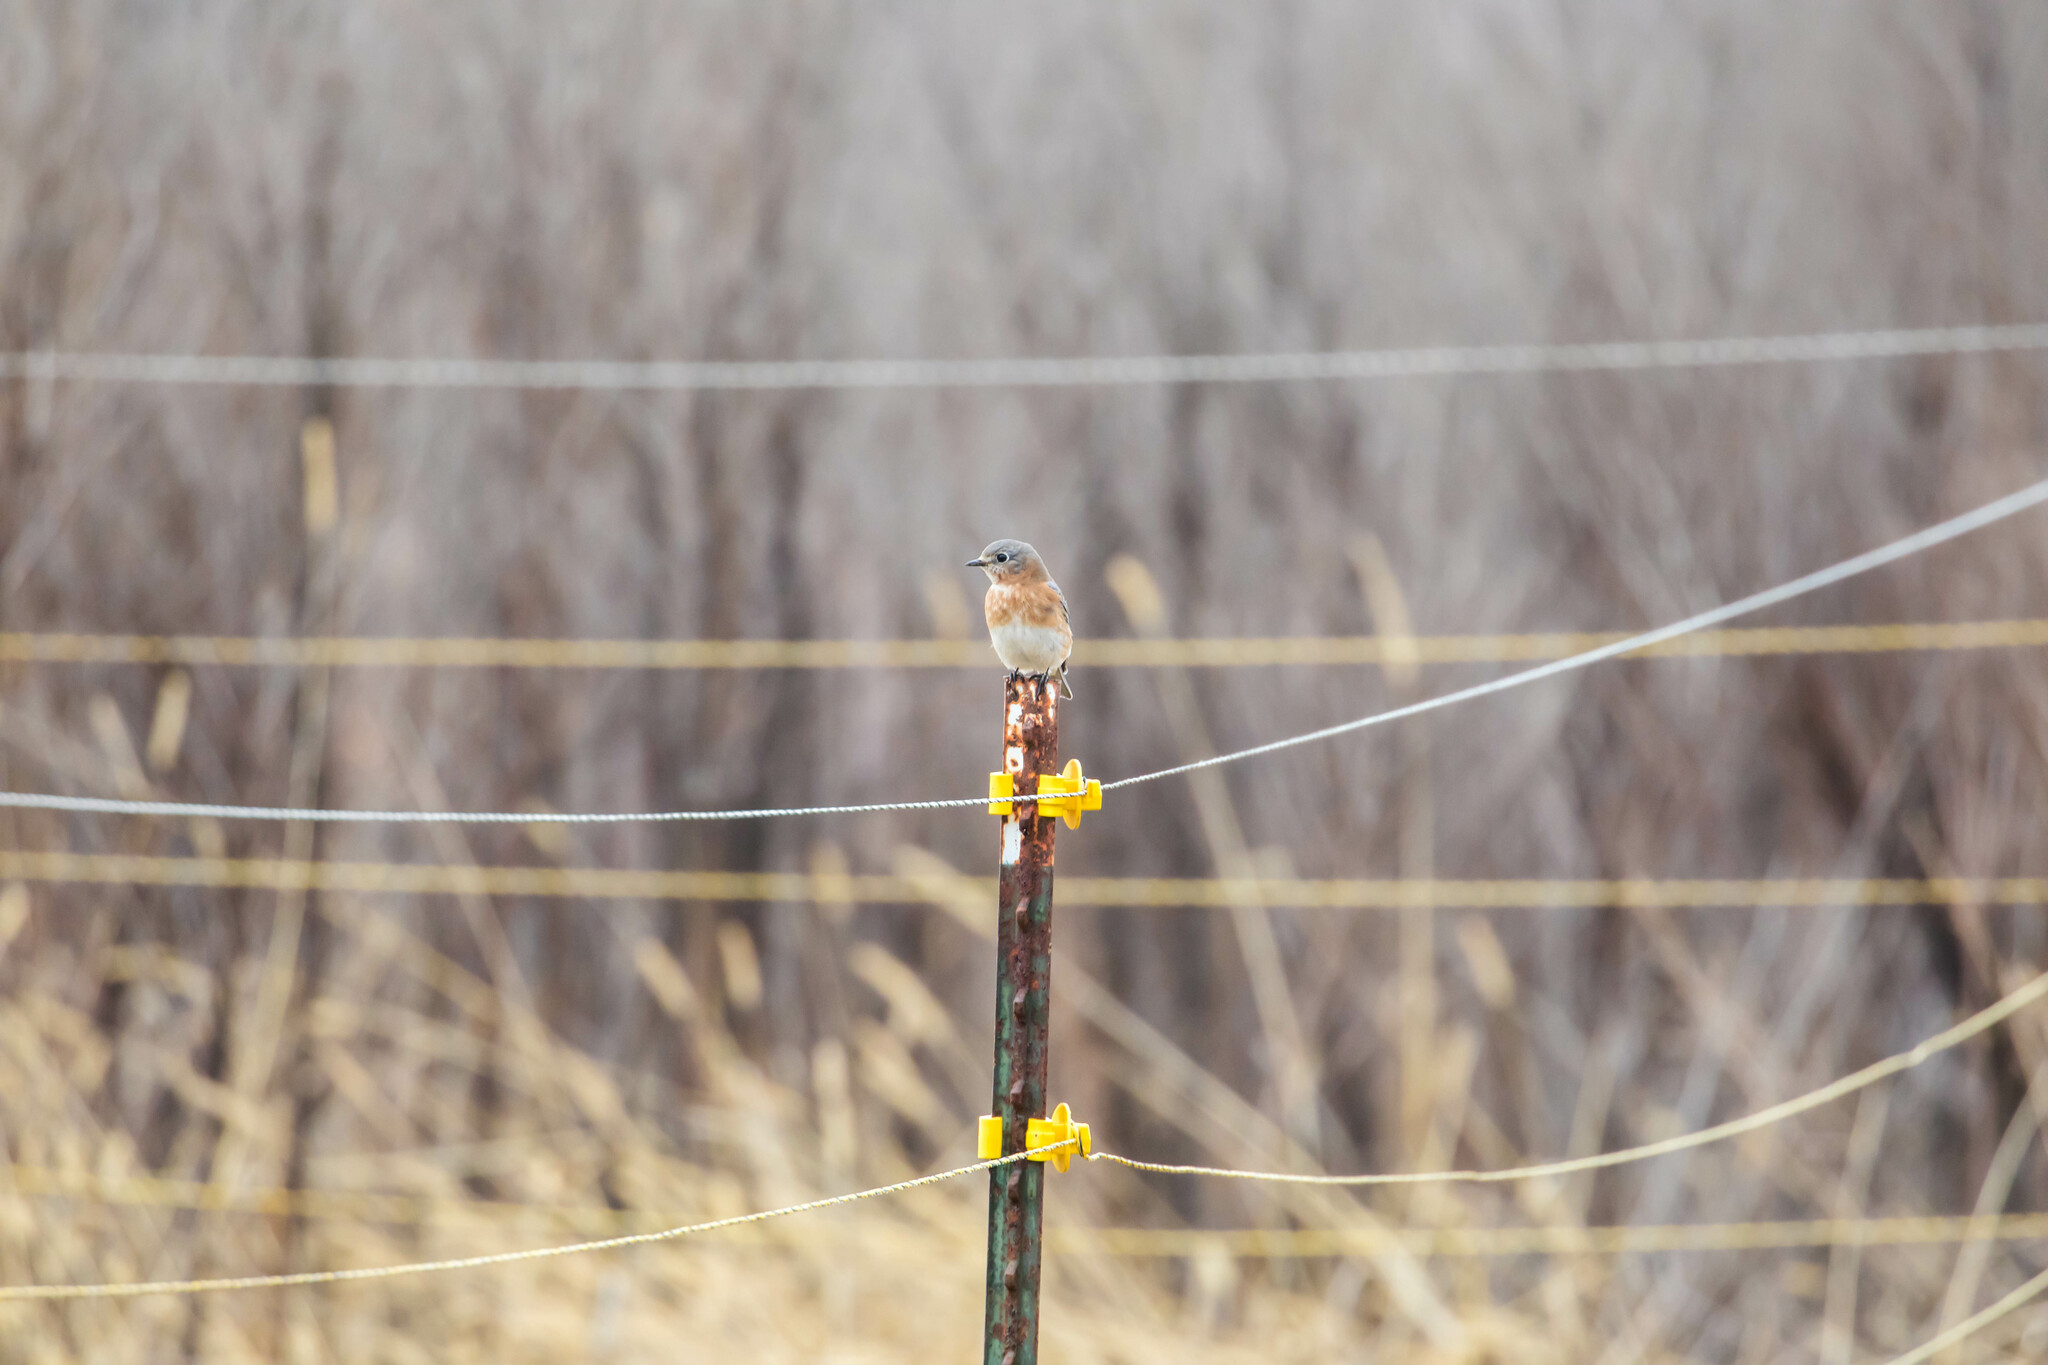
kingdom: Animalia
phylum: Chordata
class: Aves
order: Passeriformes
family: Turdidae
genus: Sialia
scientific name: Sialia sialis
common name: Eastern bluebird
